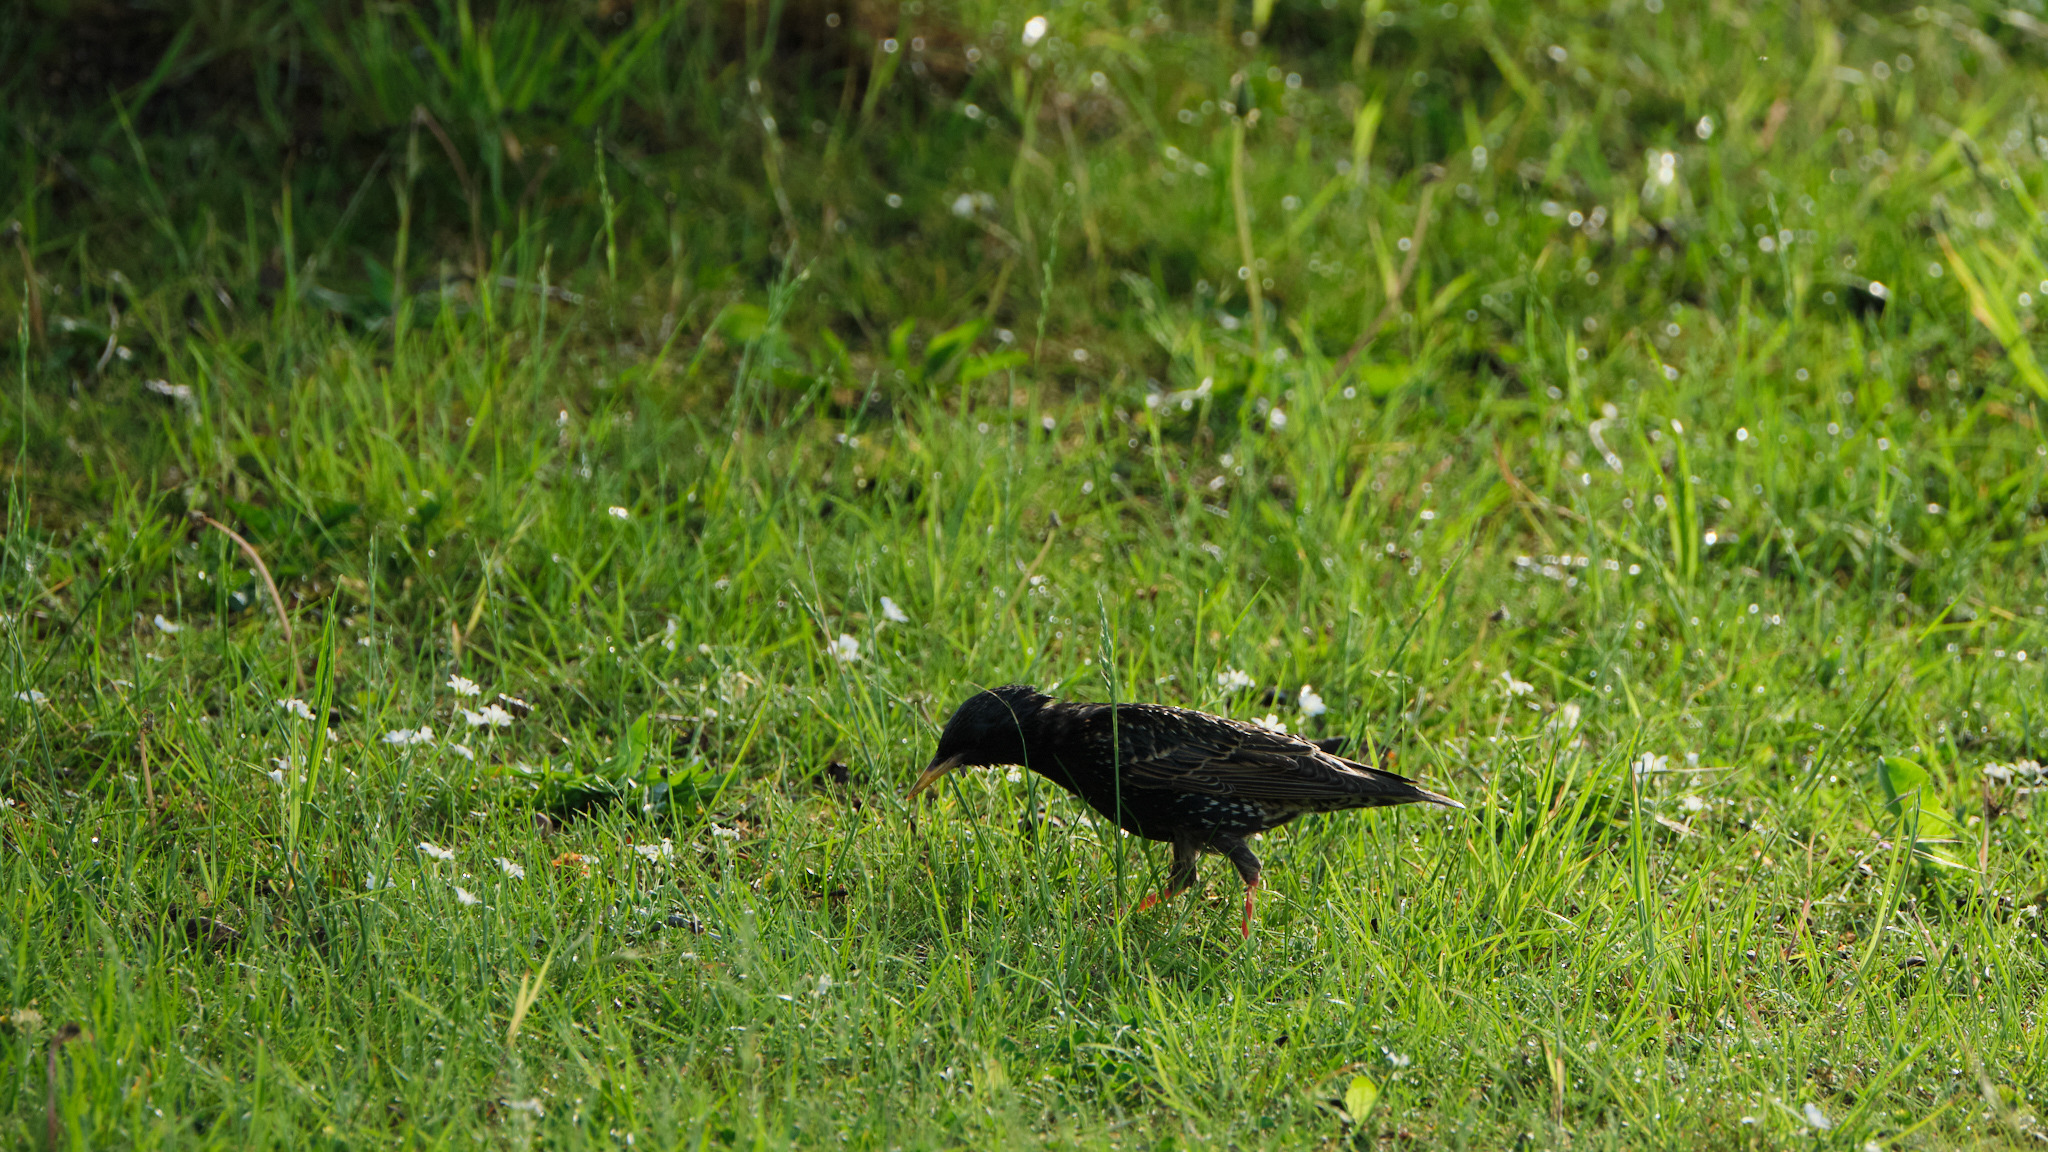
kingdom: Animalia
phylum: Chordata
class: Aves
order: Passeriformes
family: Sturnidae
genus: Sturnus
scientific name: Sturnus vulgaris
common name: Common starling
